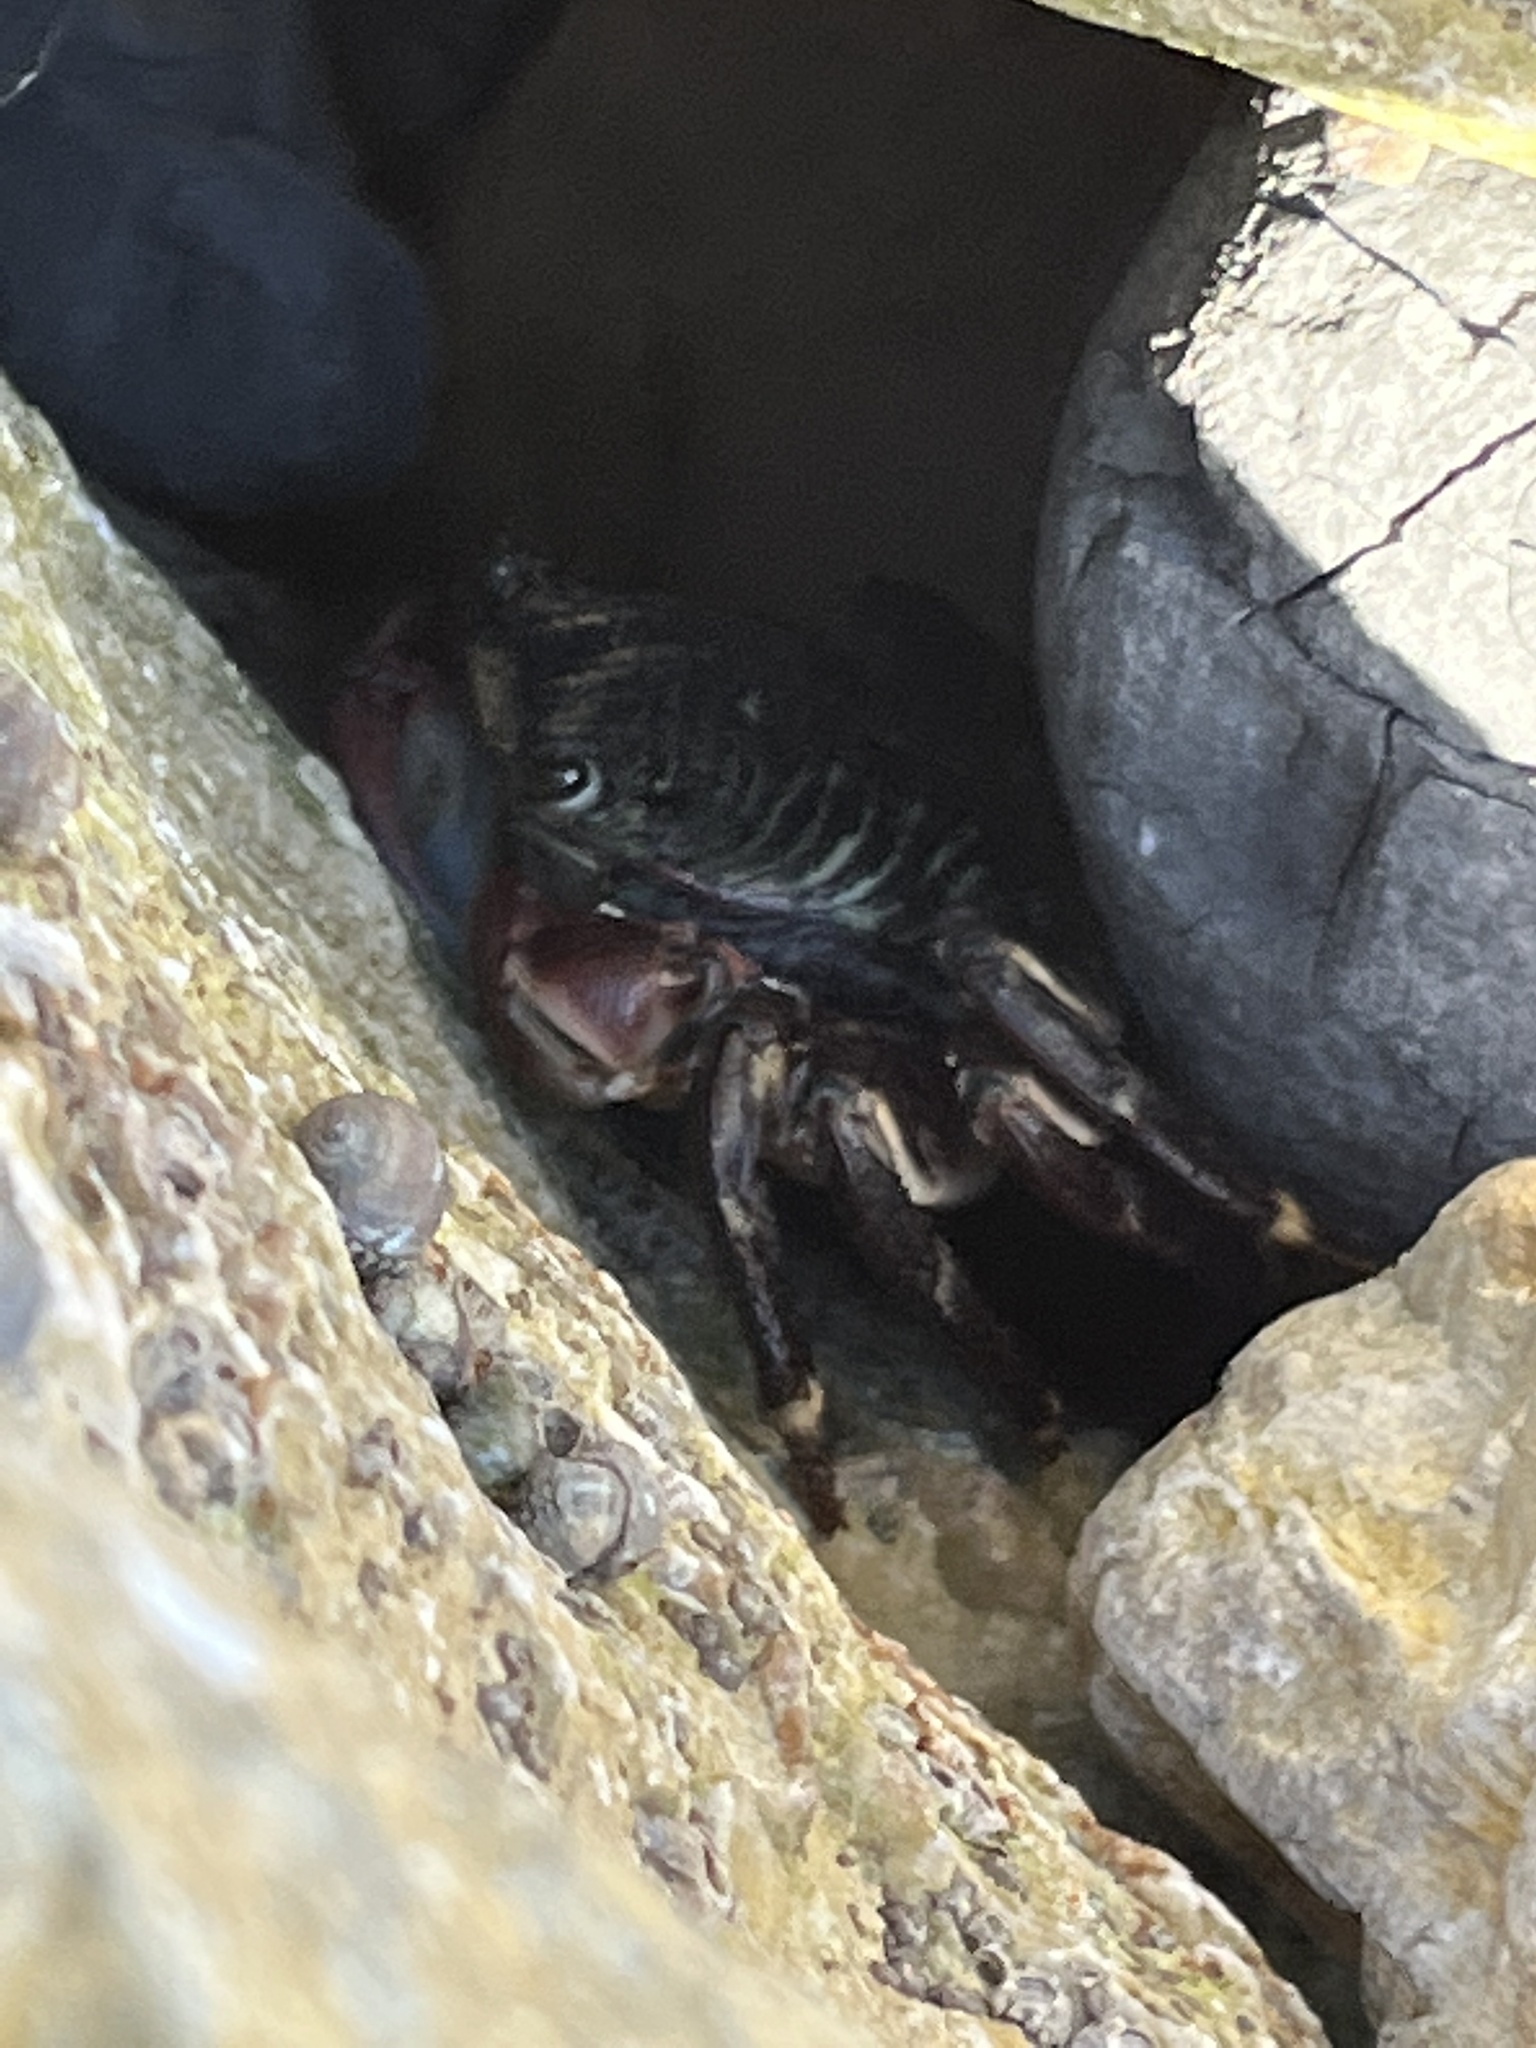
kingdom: Animalia
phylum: Arthropoda
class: Malacostraca
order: Decapoda
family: Grapsidae
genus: Pachygrapsus
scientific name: Pachygrapsus crassipes
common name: Striped shore crab
